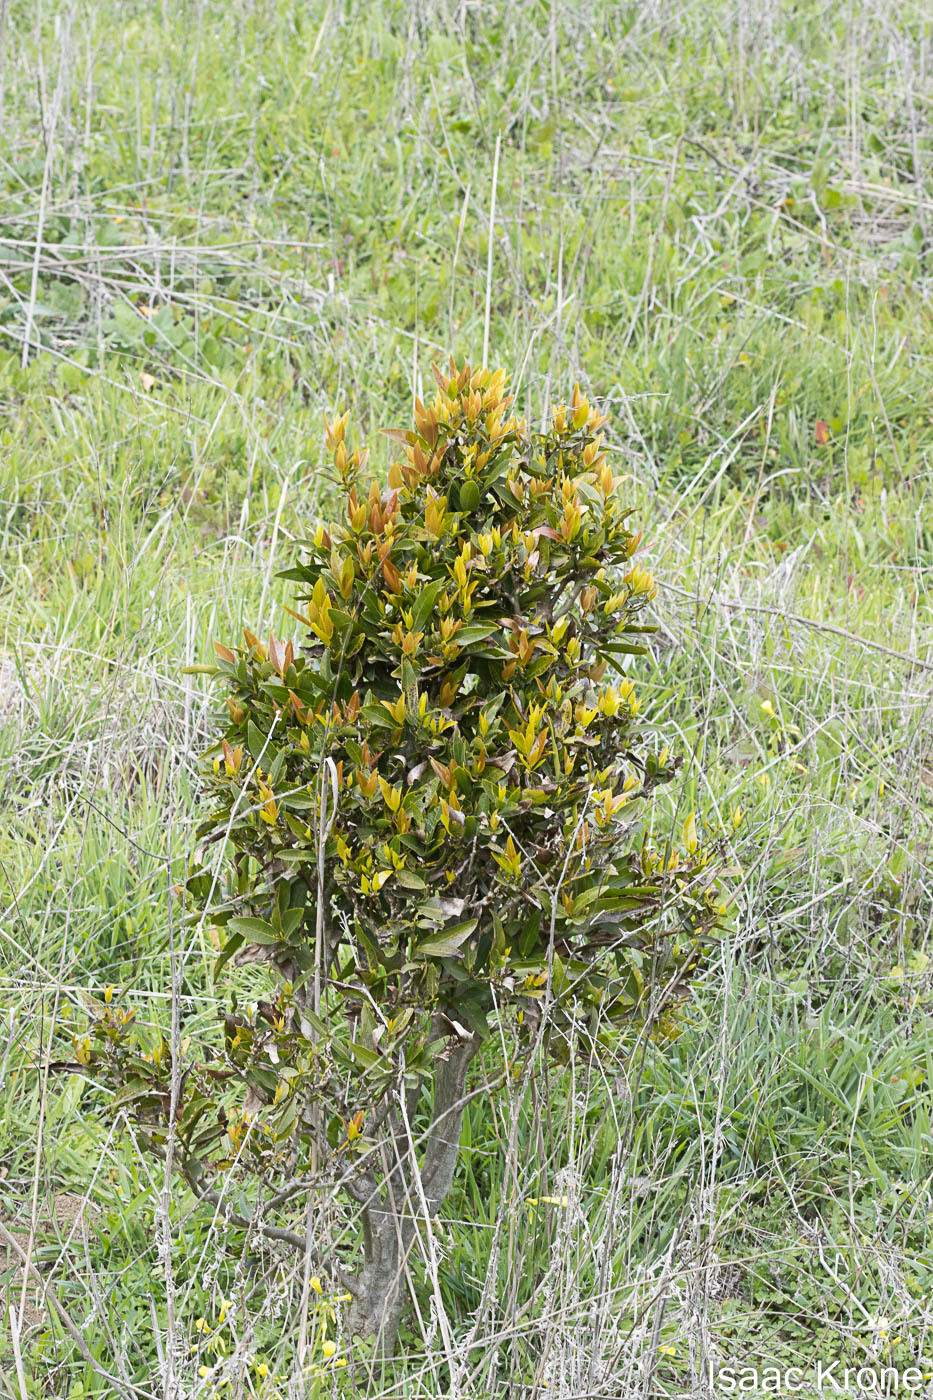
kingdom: Plantae
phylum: Tracheophyta
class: Magnoliopsida
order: Laurales
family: Lauraceae
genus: Umbellularia
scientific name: Umbellularia californica
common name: California bay
